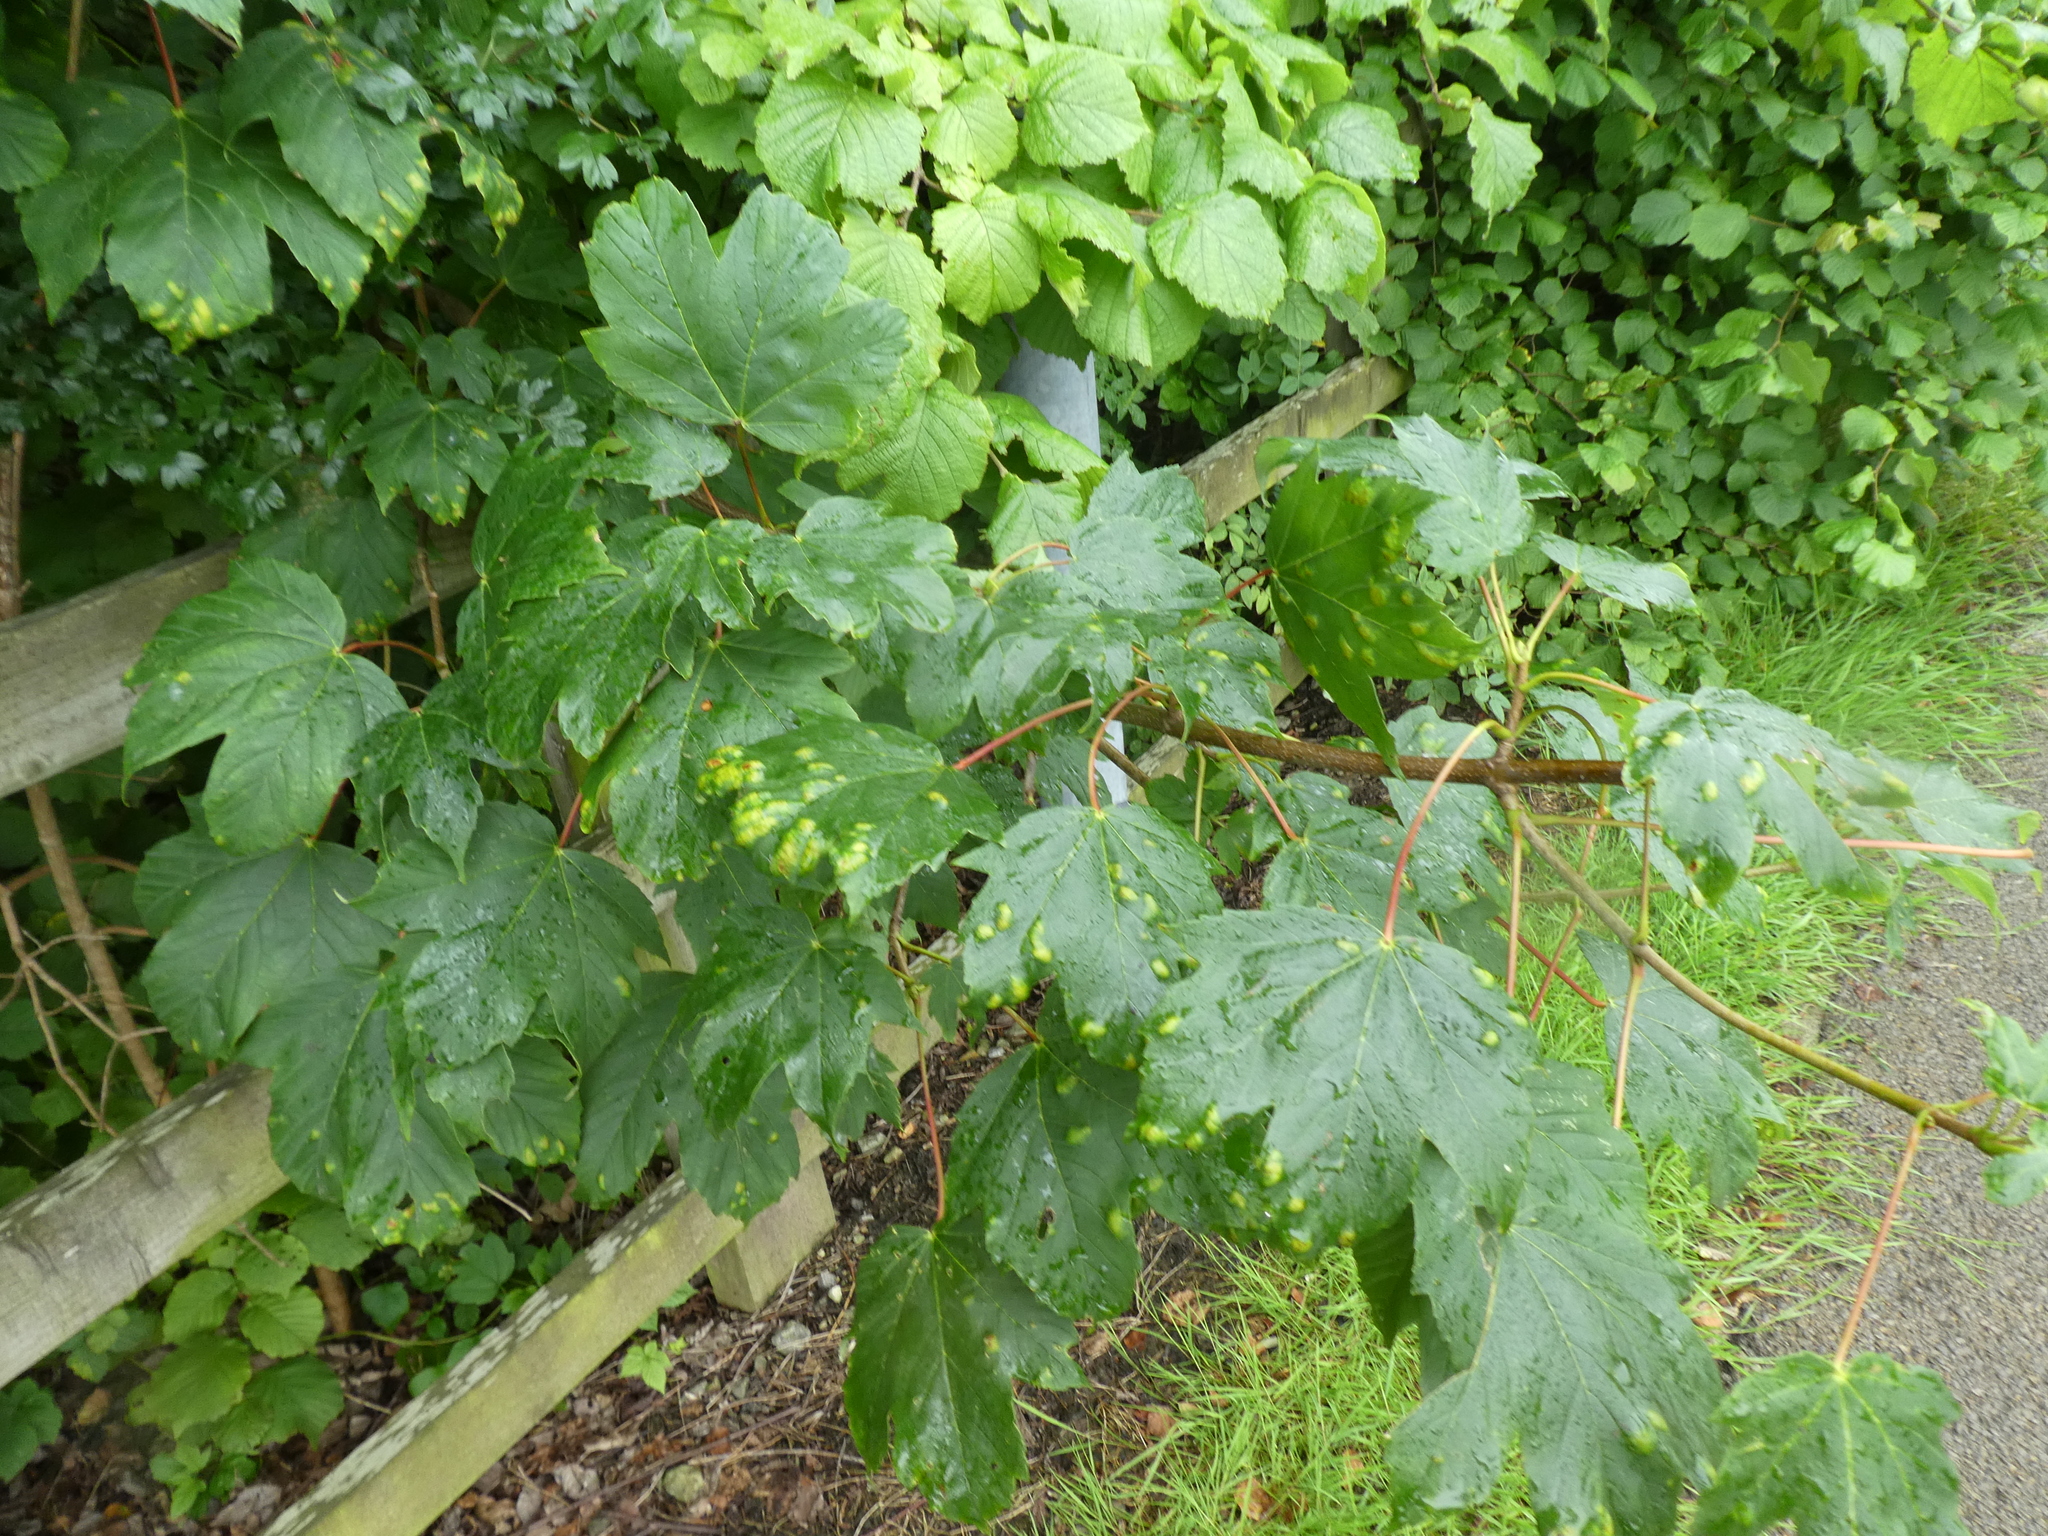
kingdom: Animalia
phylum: Arthropoda
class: Arachnida
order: Trombidiformes
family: Eriophyidae
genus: Aceria
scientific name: Aceria pseudoplatani
